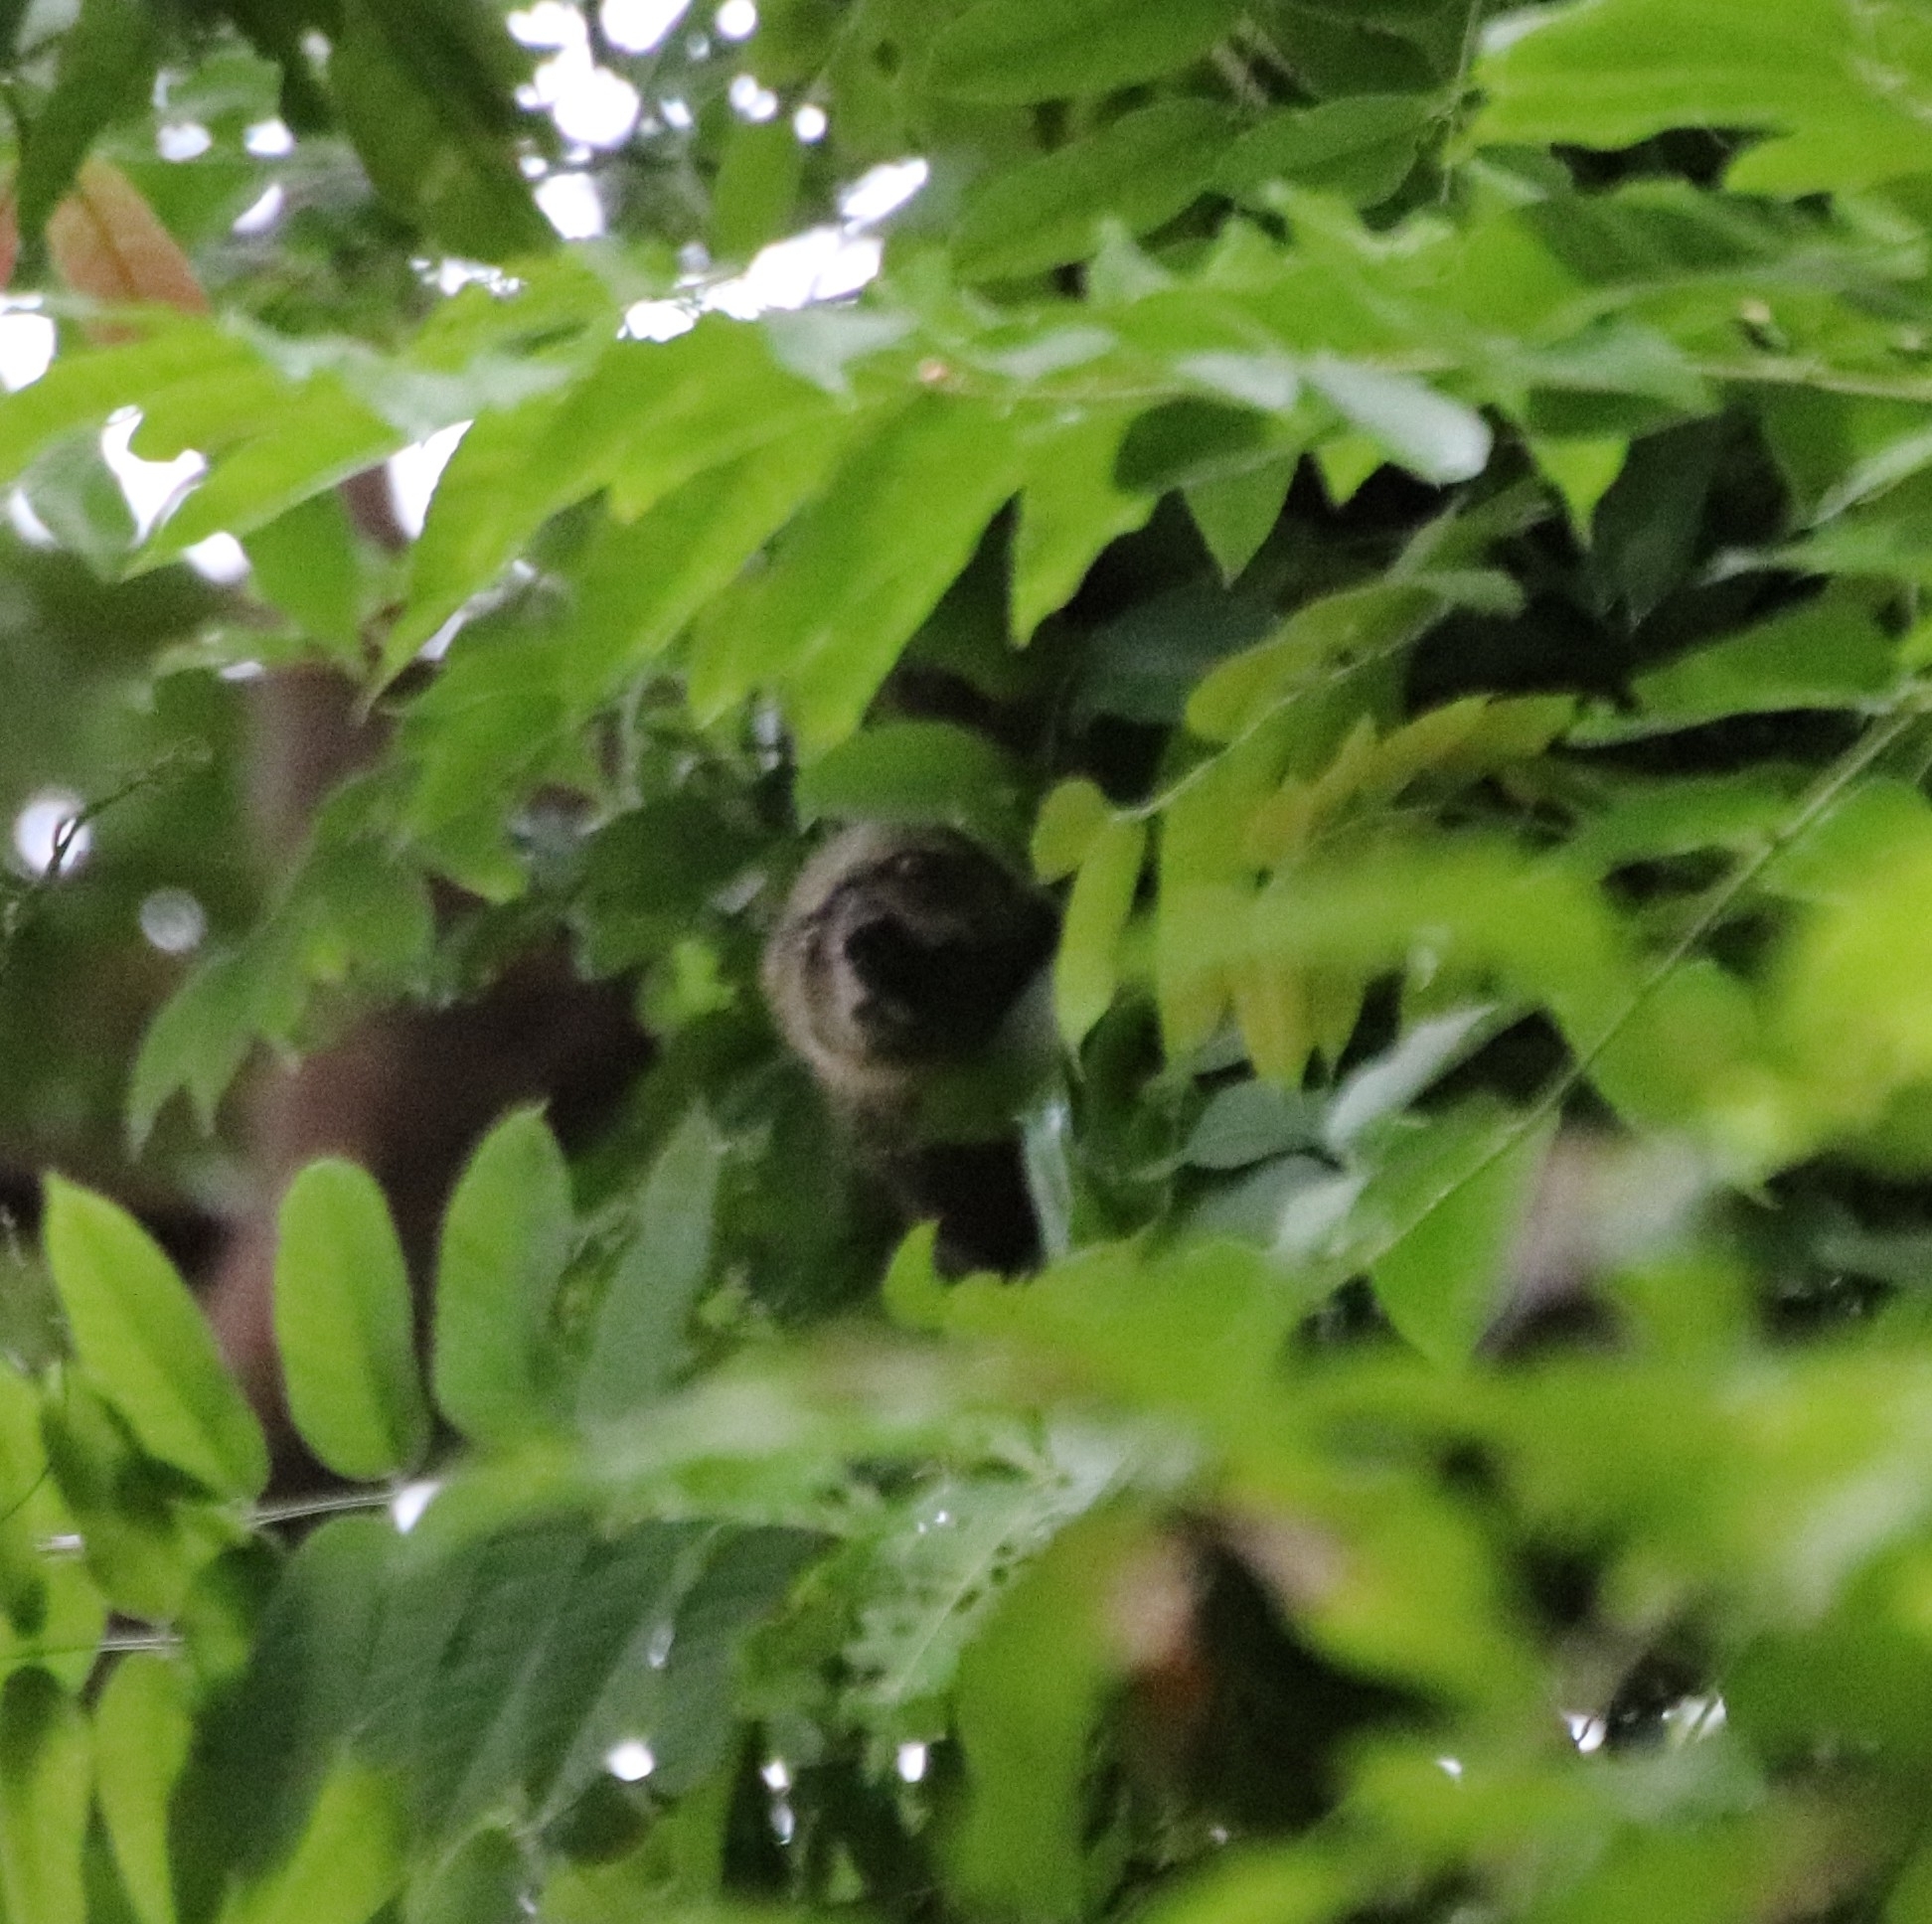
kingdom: Animalia
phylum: Chordata
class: Mammalia
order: Diprotodontia
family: Phalangeridae
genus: Ailurops
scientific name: Ailurops ursinus
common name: Sulawesi bear cuscus
